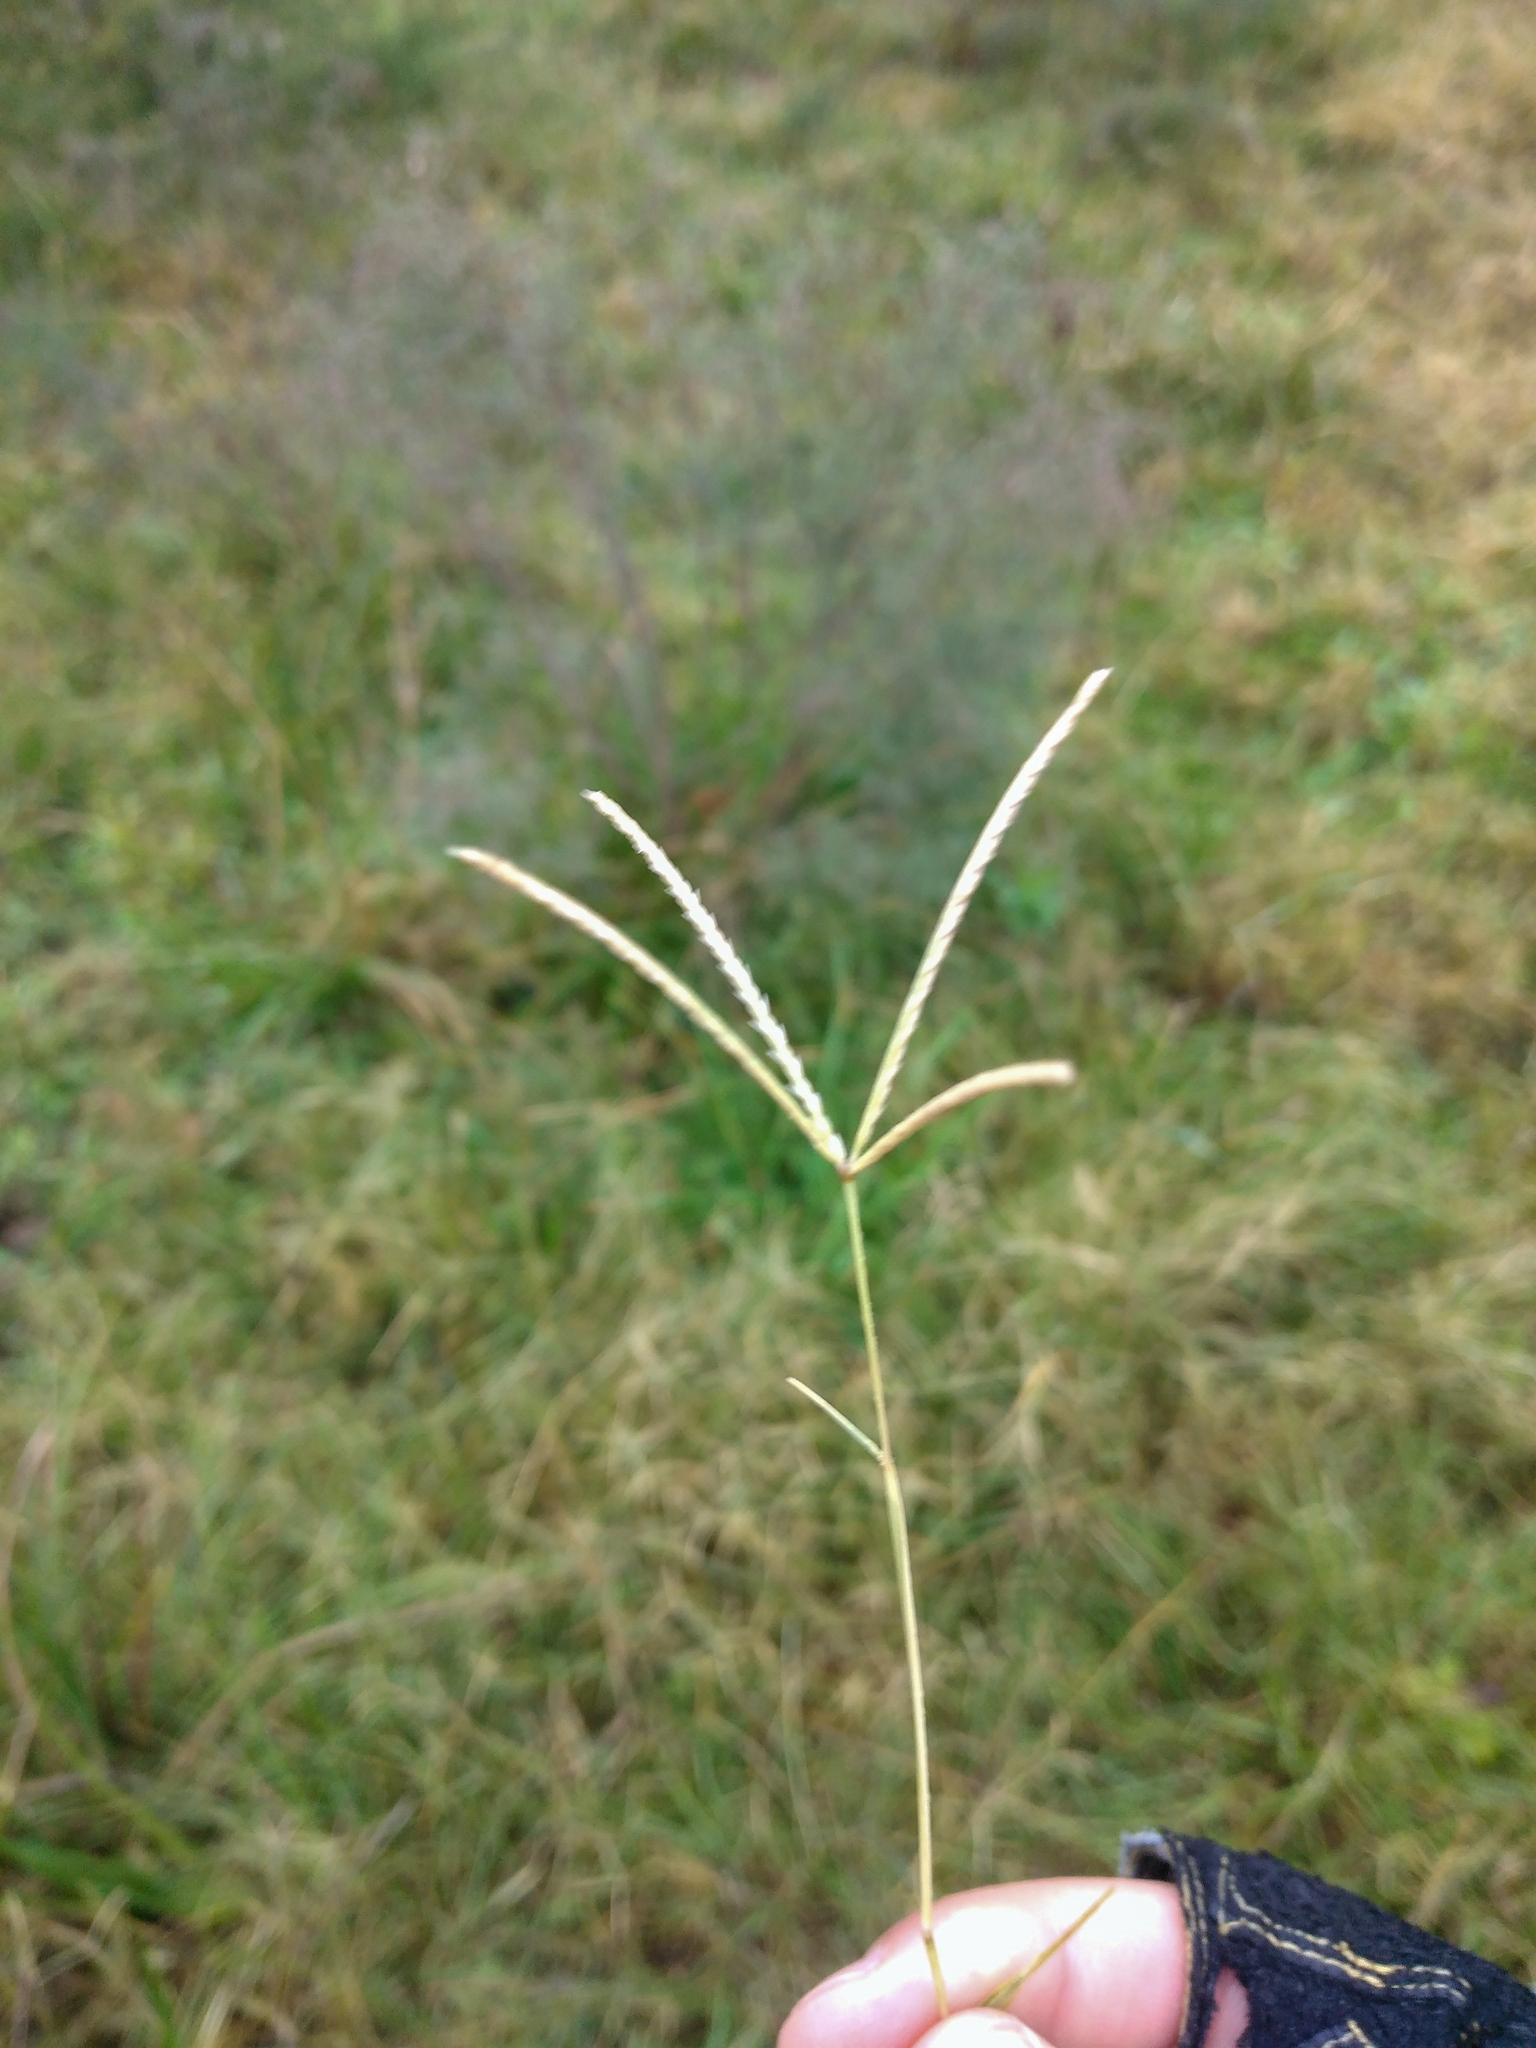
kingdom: Plantae
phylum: Tracheophyta
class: Liliopsida
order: Poales
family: Poaceae
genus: Cynodon
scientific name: Cynodon dactylon
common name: Bermuda grass
